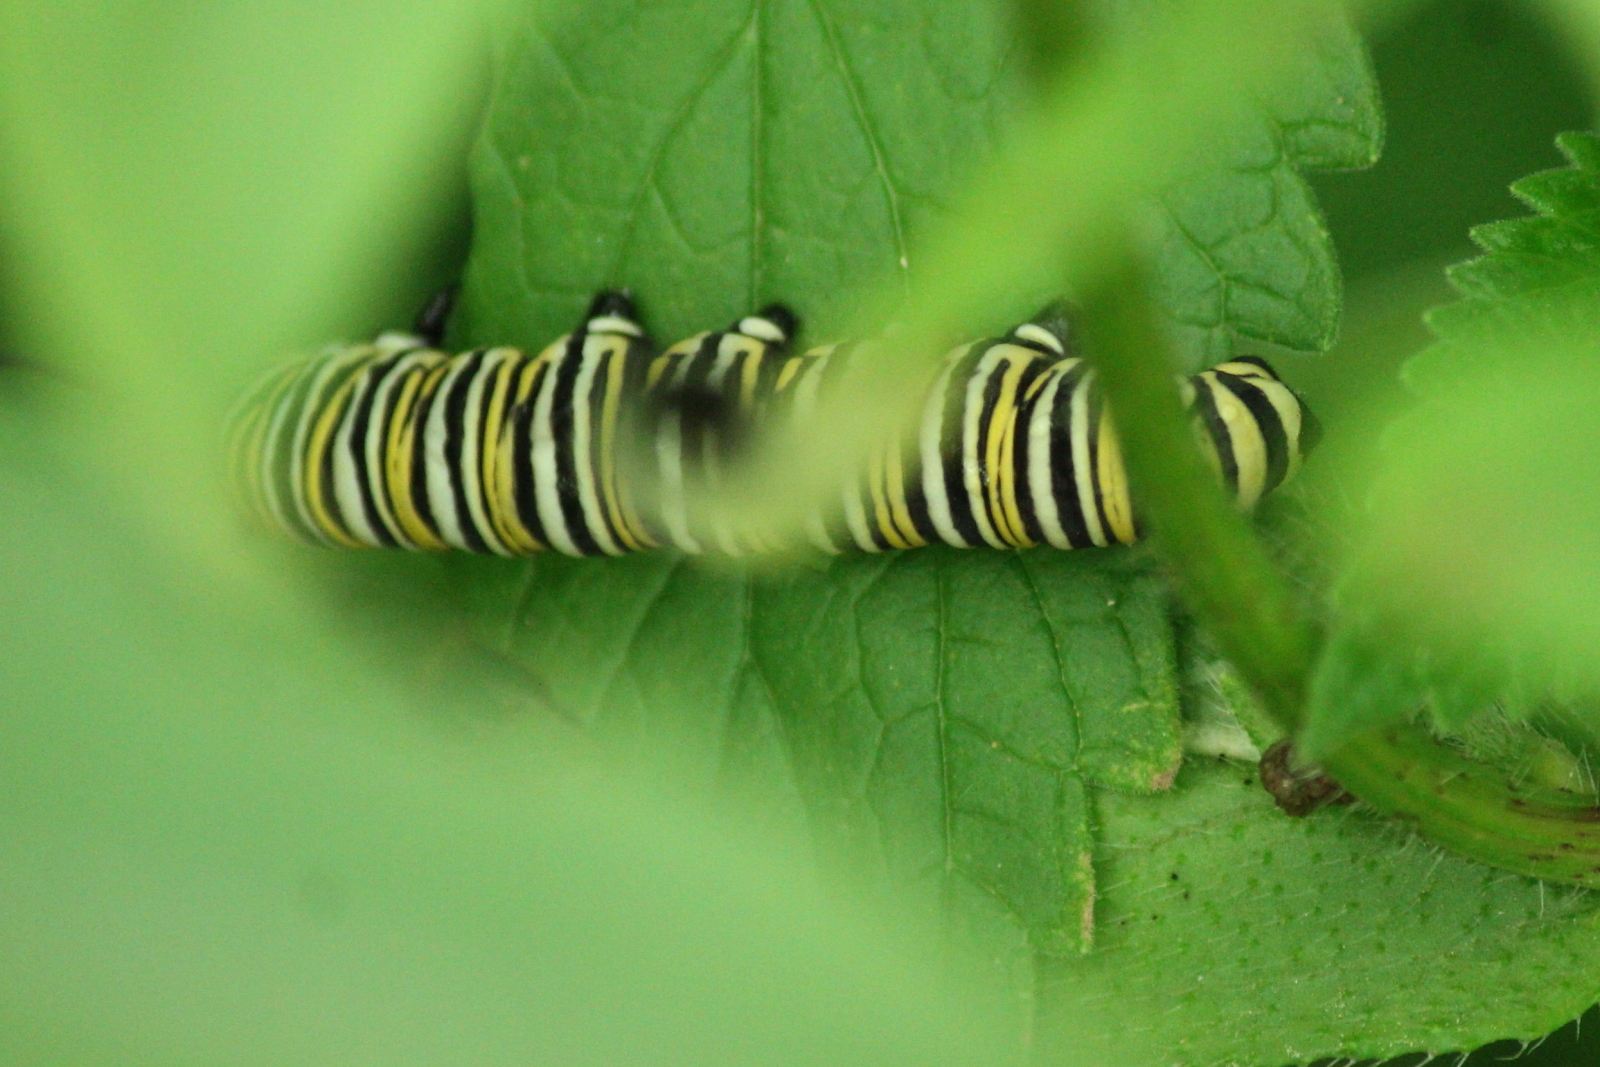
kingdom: Animalia
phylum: Arthropoda
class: Insecta
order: Lepidoptera
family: Nymphalidae
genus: Danaus
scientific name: Danaus plexippus
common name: Monarch
